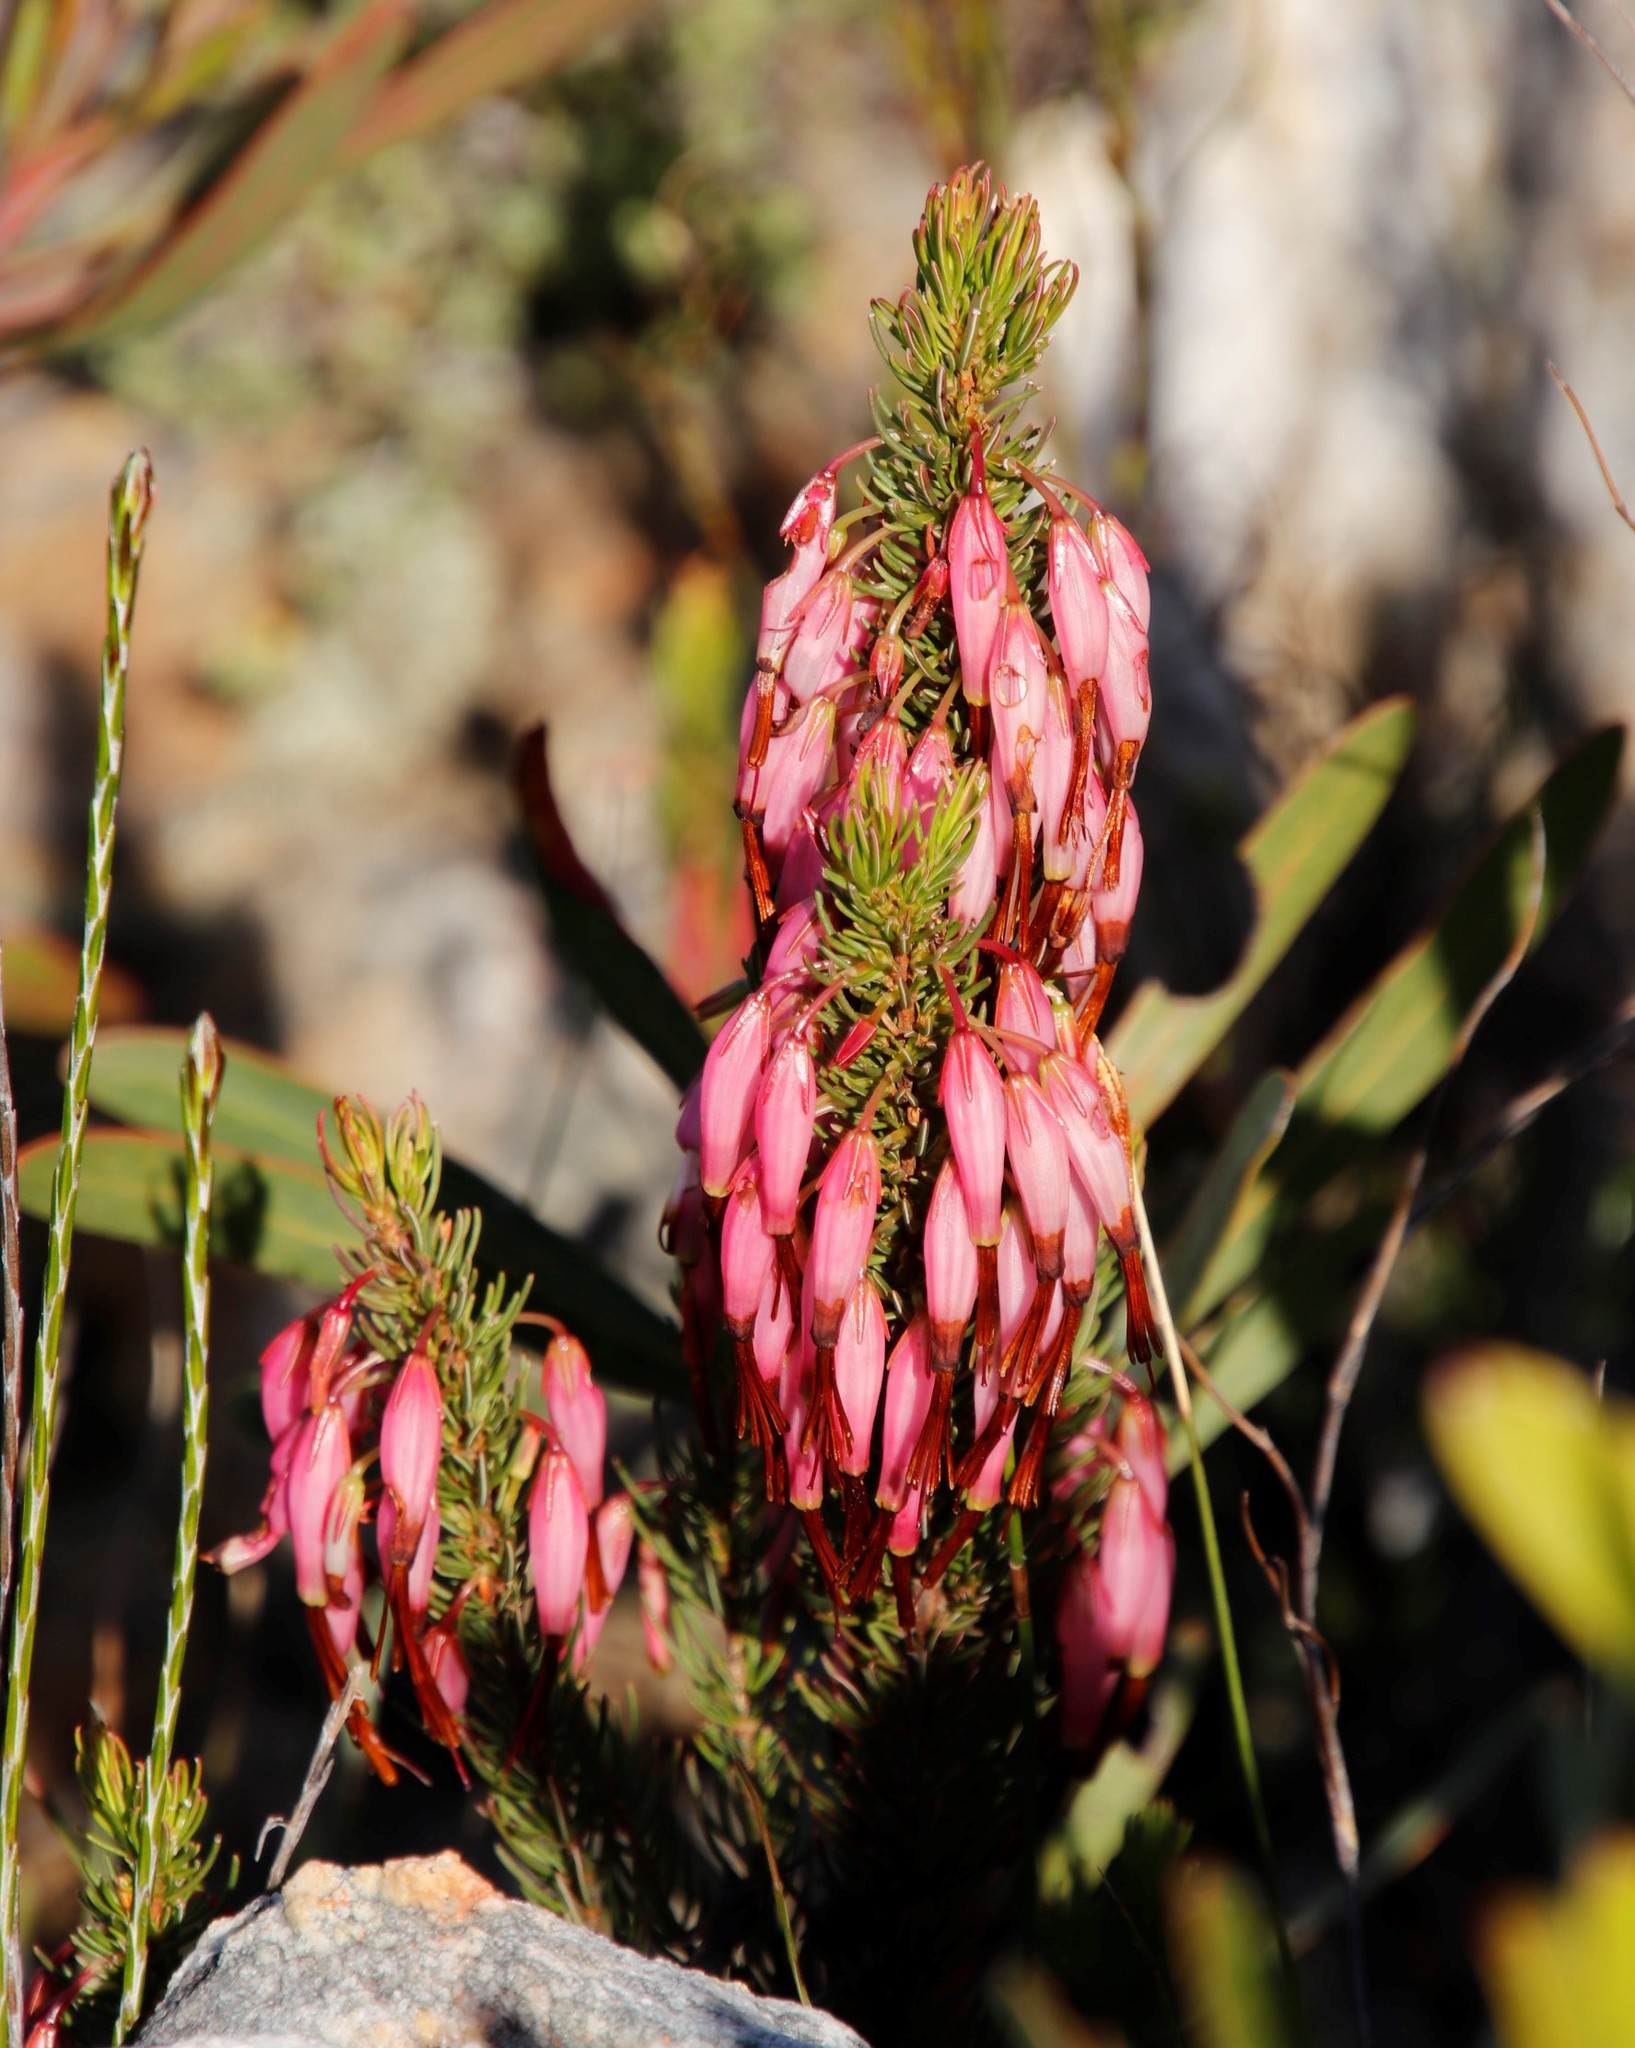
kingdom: Plantae
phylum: Tracheophyta
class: Magnoliopsida
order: Ericales
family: Ericaceae
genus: Erica
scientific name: Erica plukenetii
